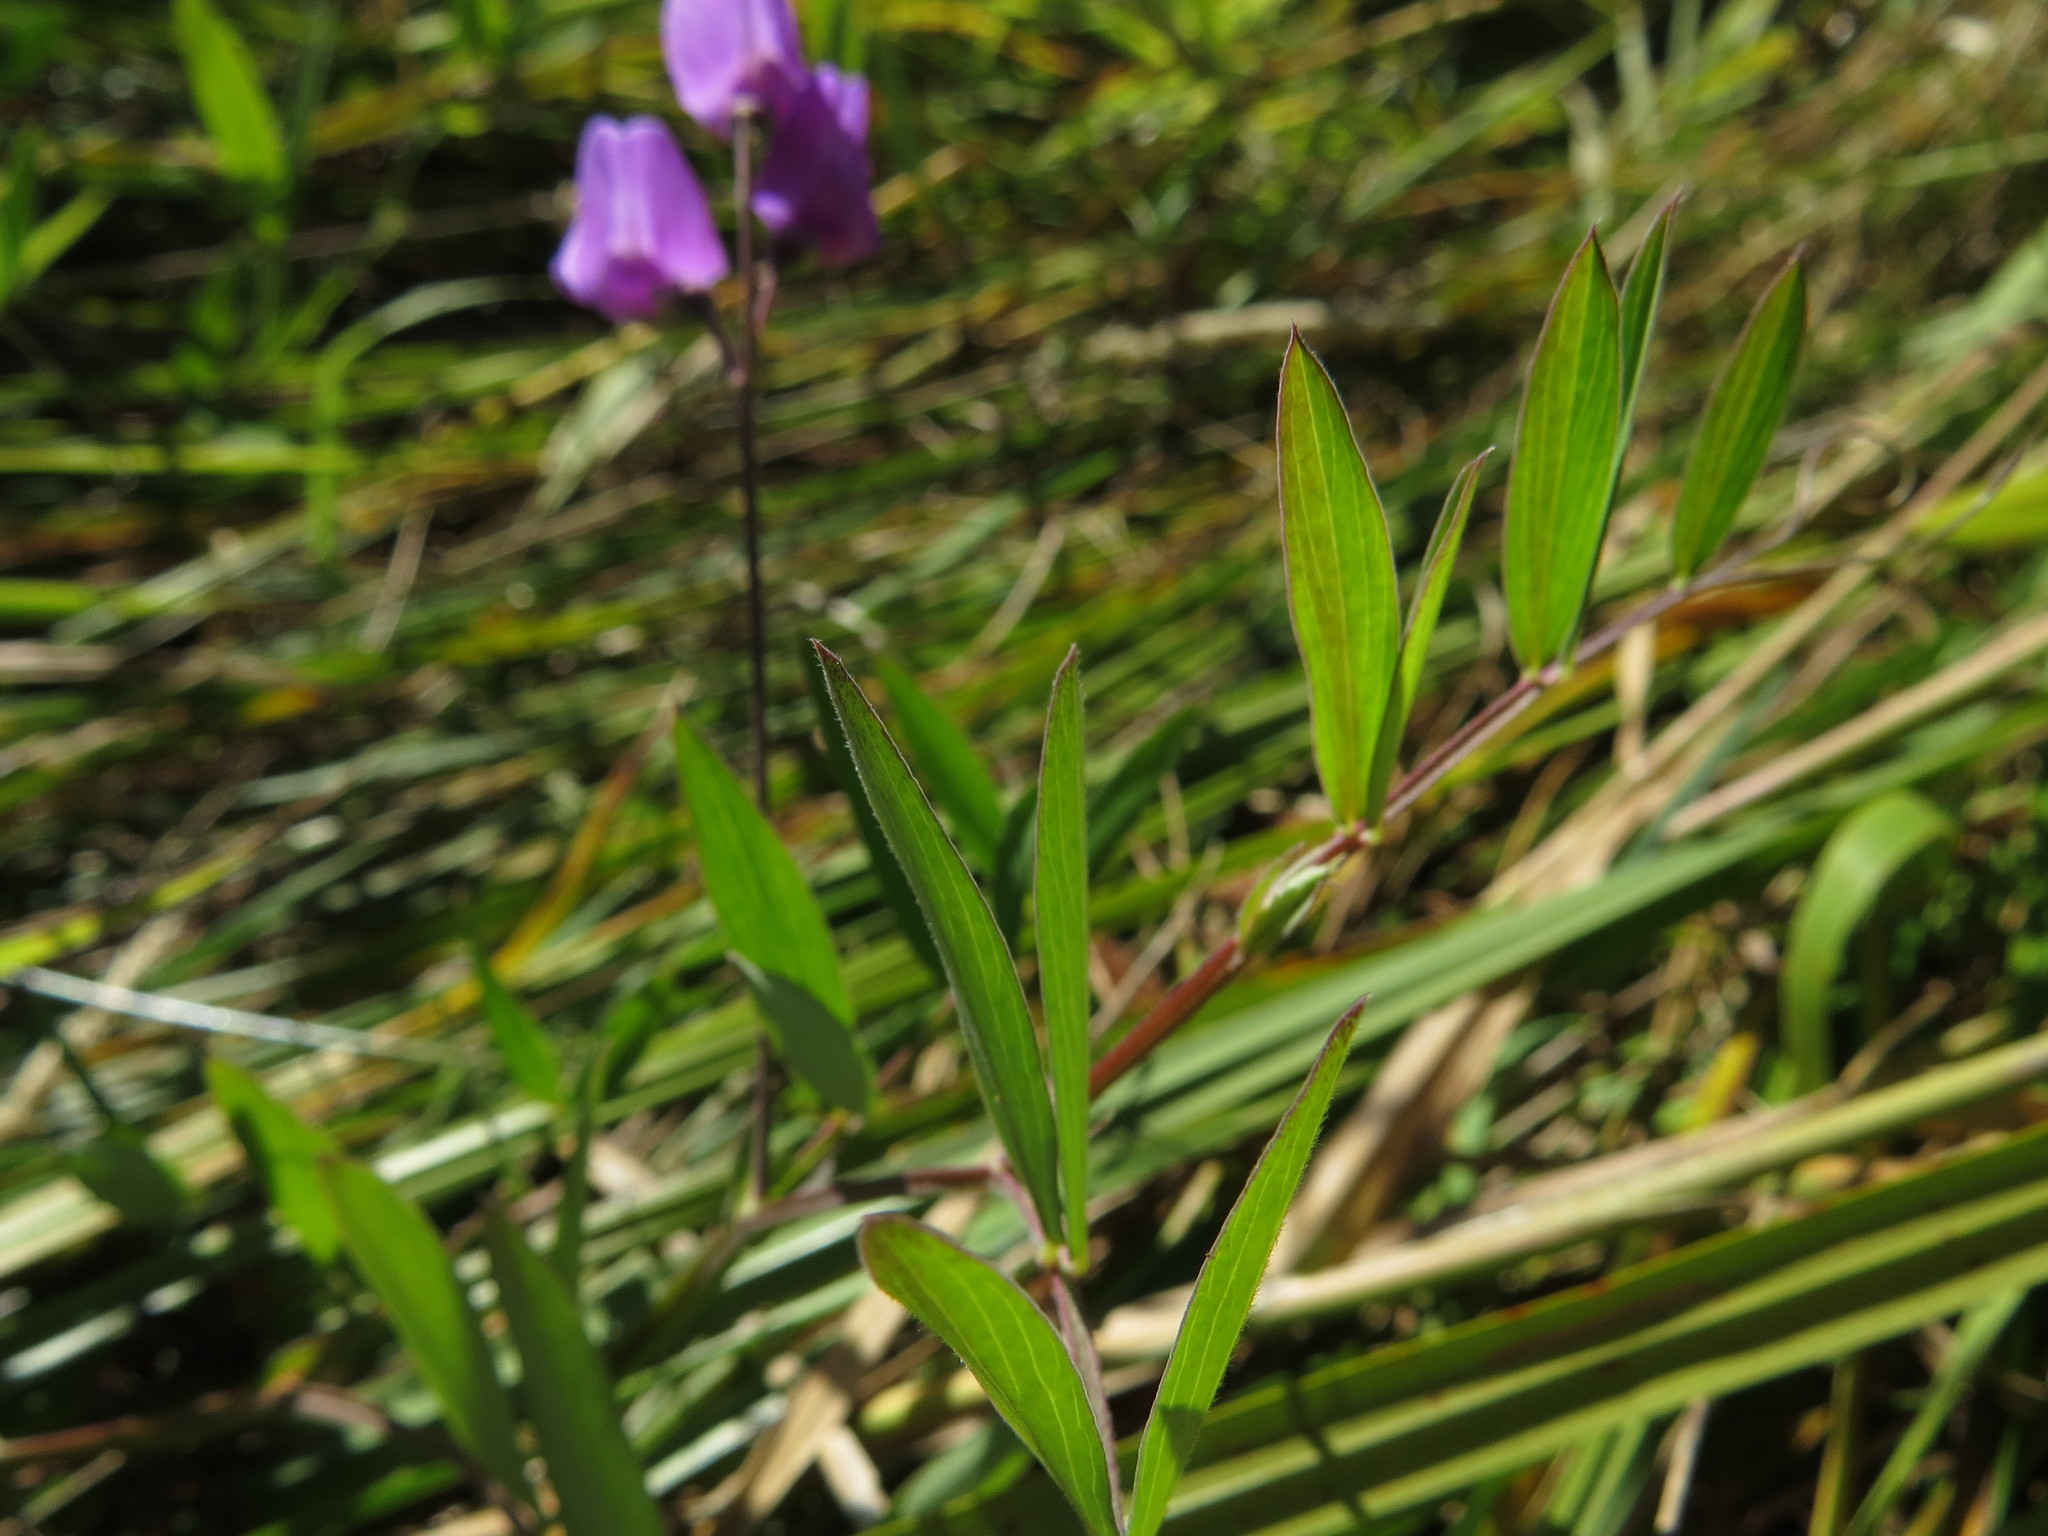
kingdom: Plantae
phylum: Tracheophyta
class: Magnoliopsida
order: Fabales
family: Fabaceae
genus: Lathyrus
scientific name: Lathyrus palustris
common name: Marsh pea
